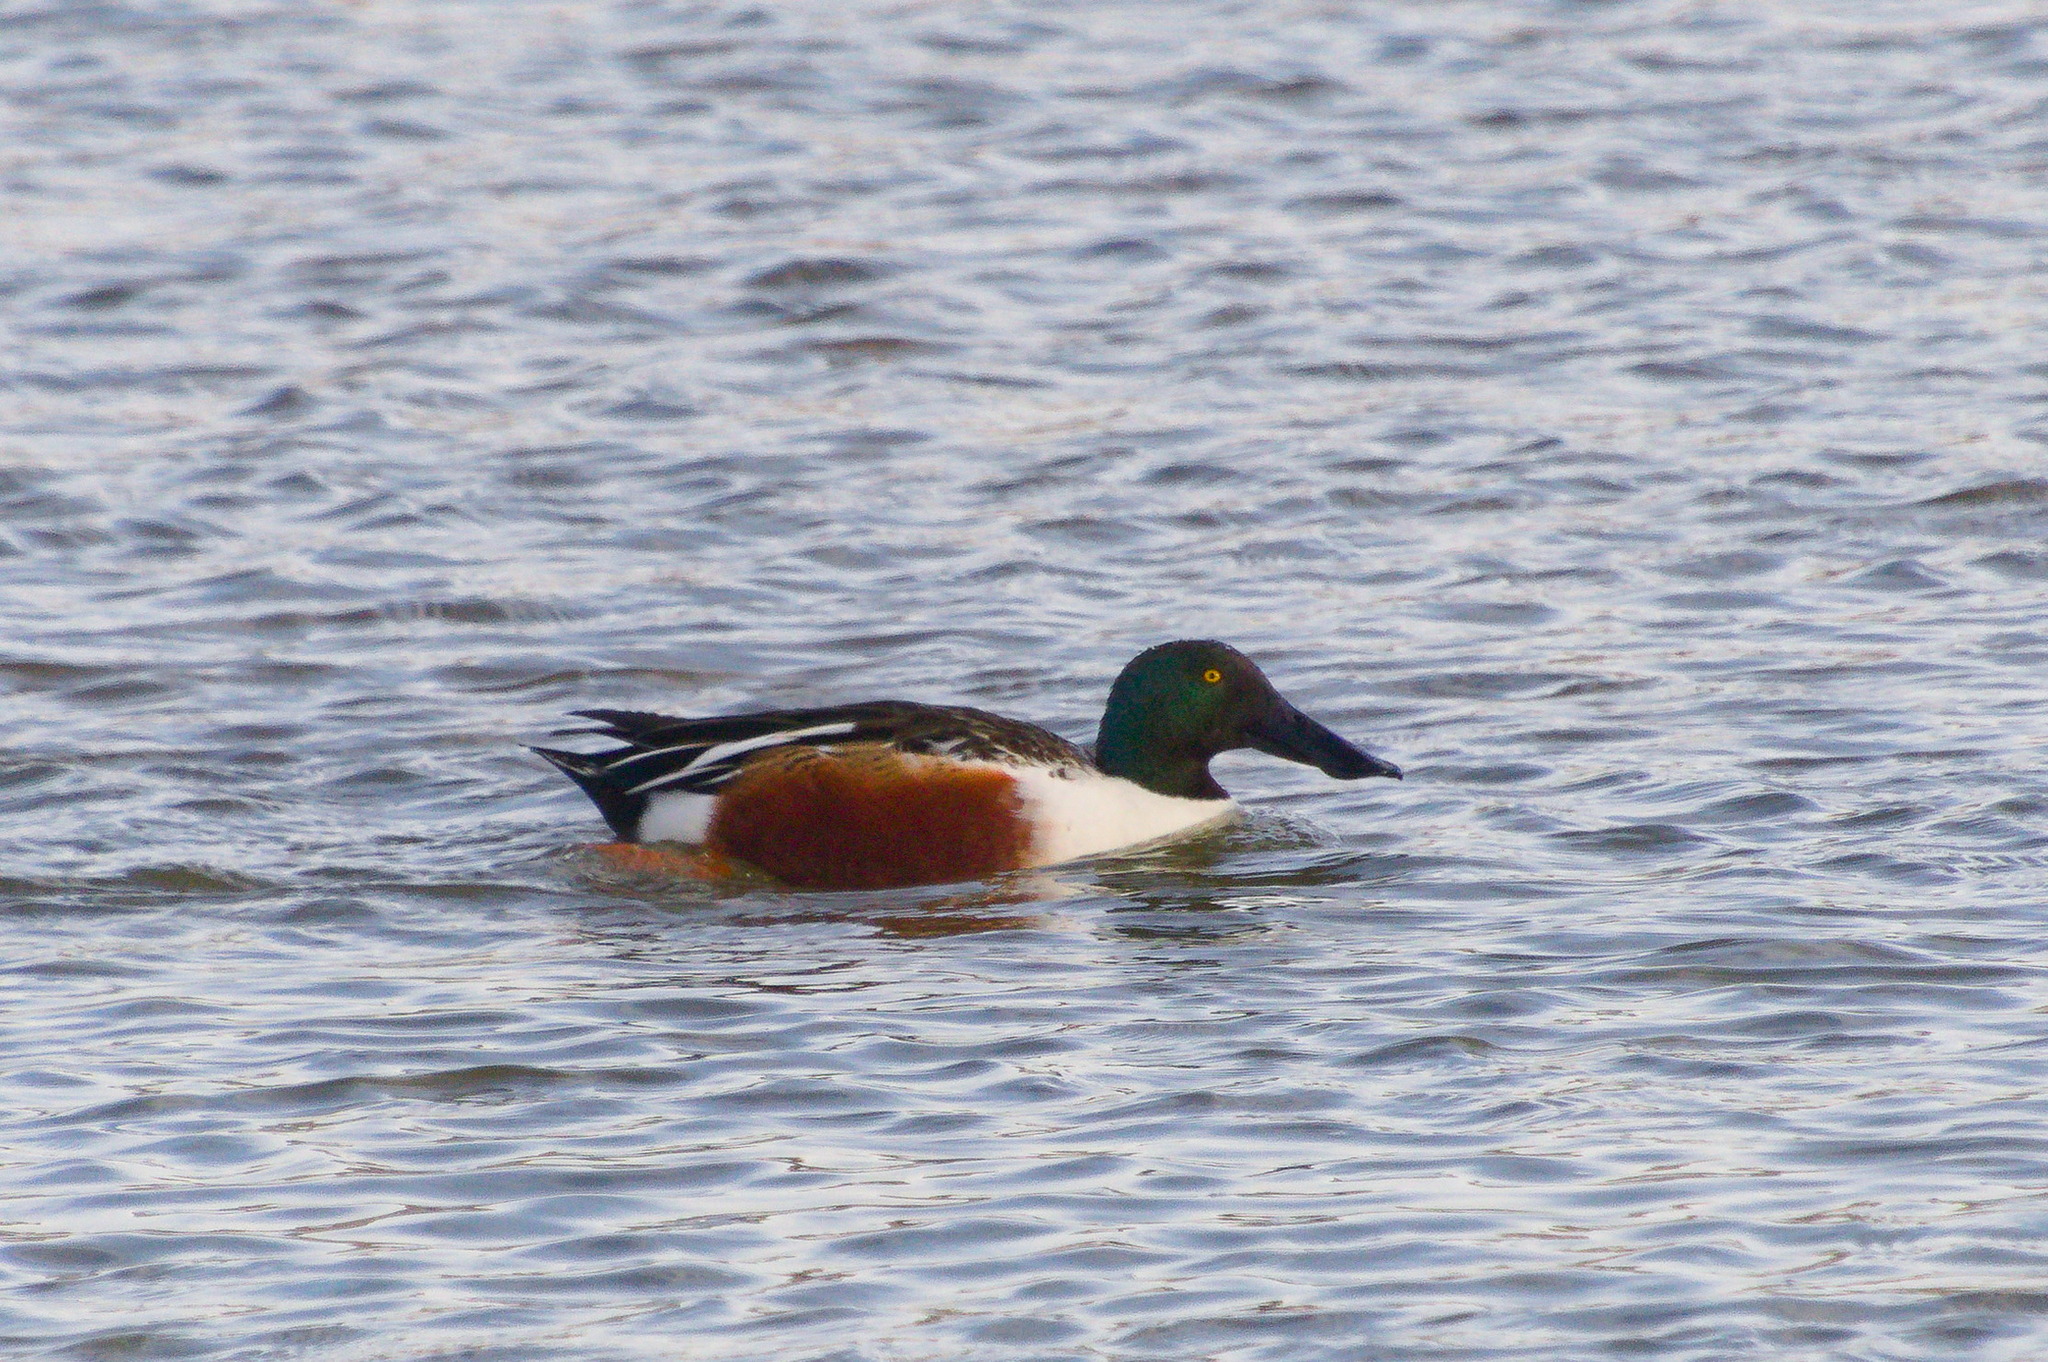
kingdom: Animalia
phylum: Chordata
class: Aves
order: Anseriformes
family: Anatidae
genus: Spatula
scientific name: Spatula clypeata
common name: Northern shoveler
